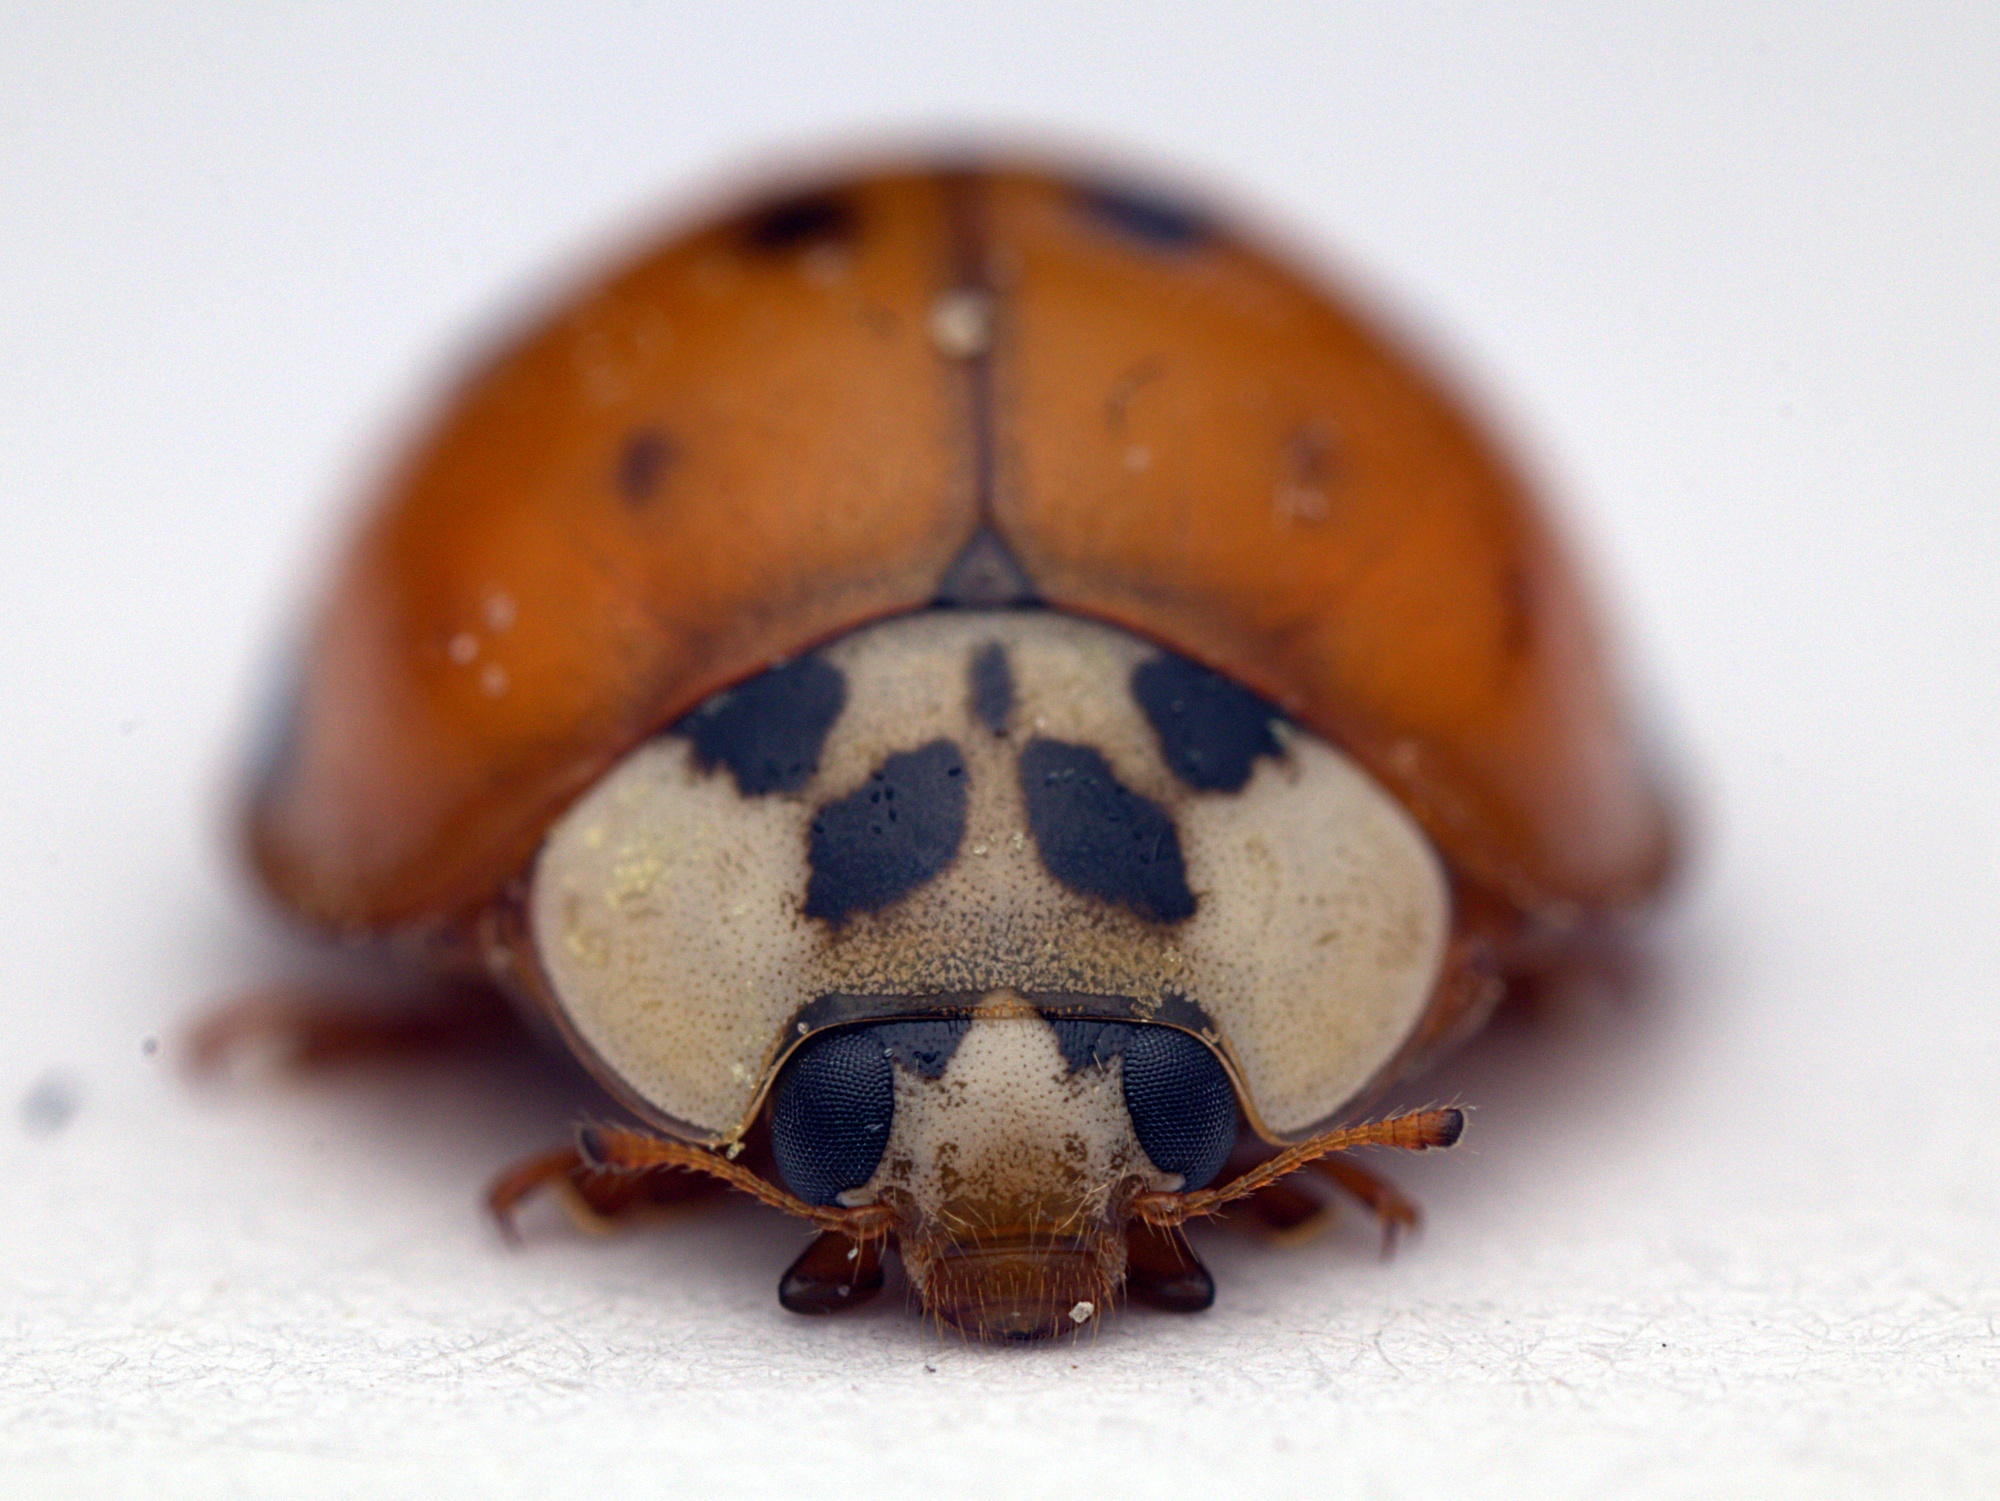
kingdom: Animalia
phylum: Arthropoda
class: Insecta
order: Coleoptera
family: Coccinellidae
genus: Harmonia
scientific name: Harmonia axyridis
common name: Harlequin ladybird
